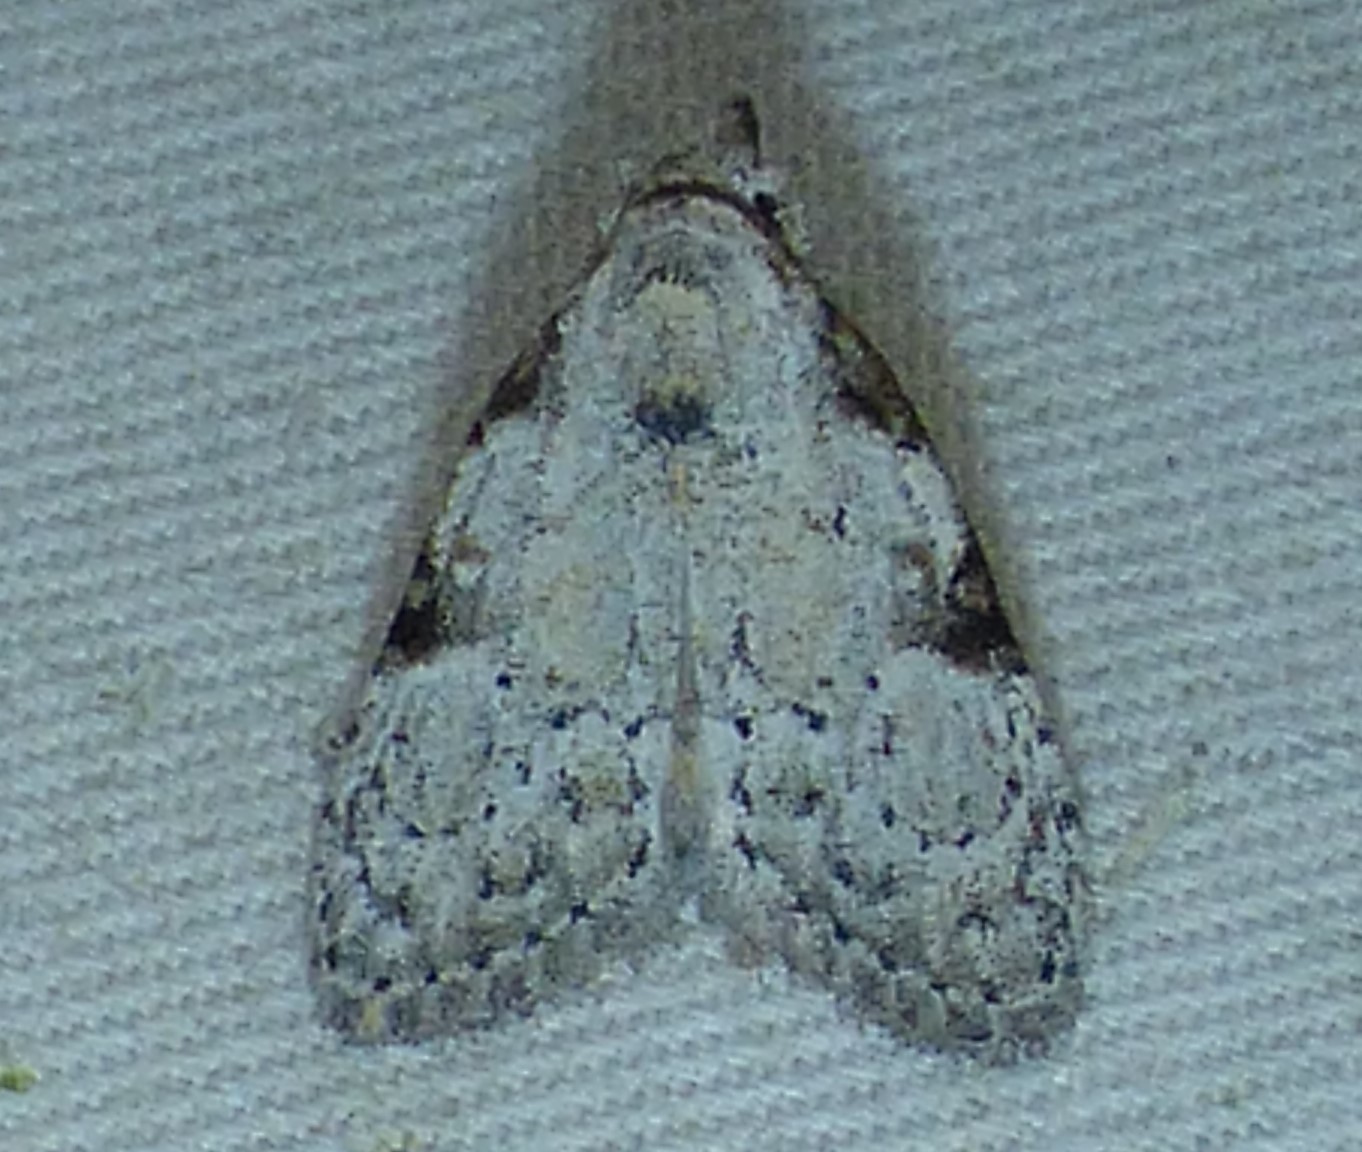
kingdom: Animalia
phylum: Arthropoda
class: Insecta
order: Lepidoptera
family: Nolidae
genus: Meganola
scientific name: Meganola minuscula
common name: Confused meganola moth
